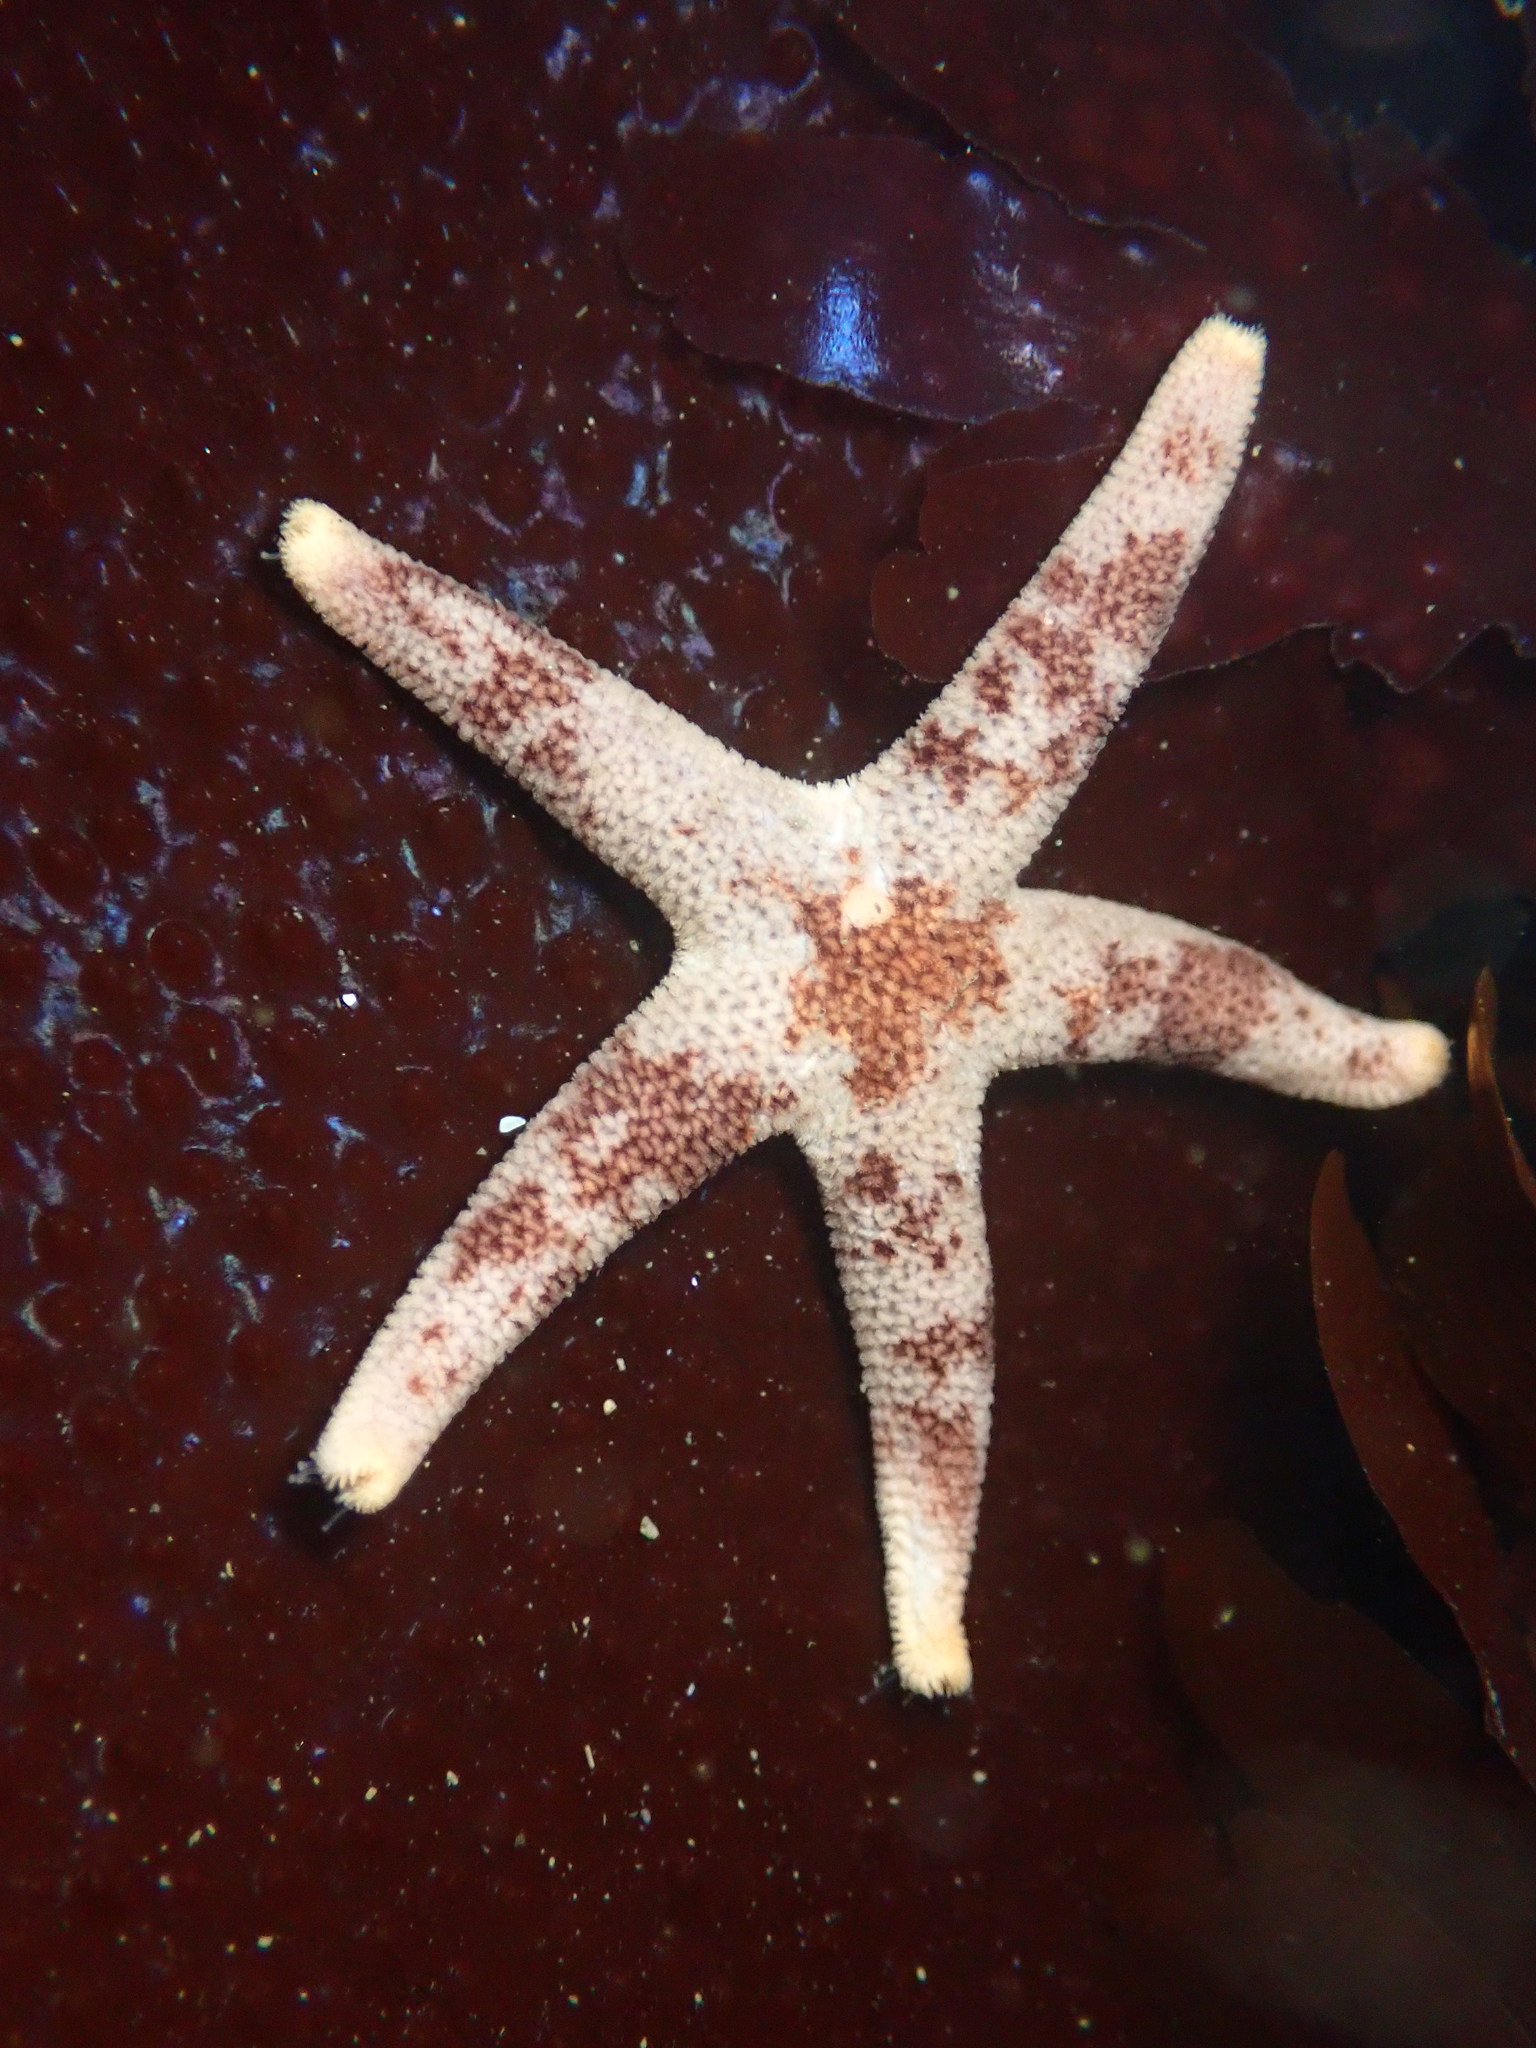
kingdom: Animalia
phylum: Echinodermata
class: Asteroidea
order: Spinulosida
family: Echinasteridae
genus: Henricia
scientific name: Henricia pumila
